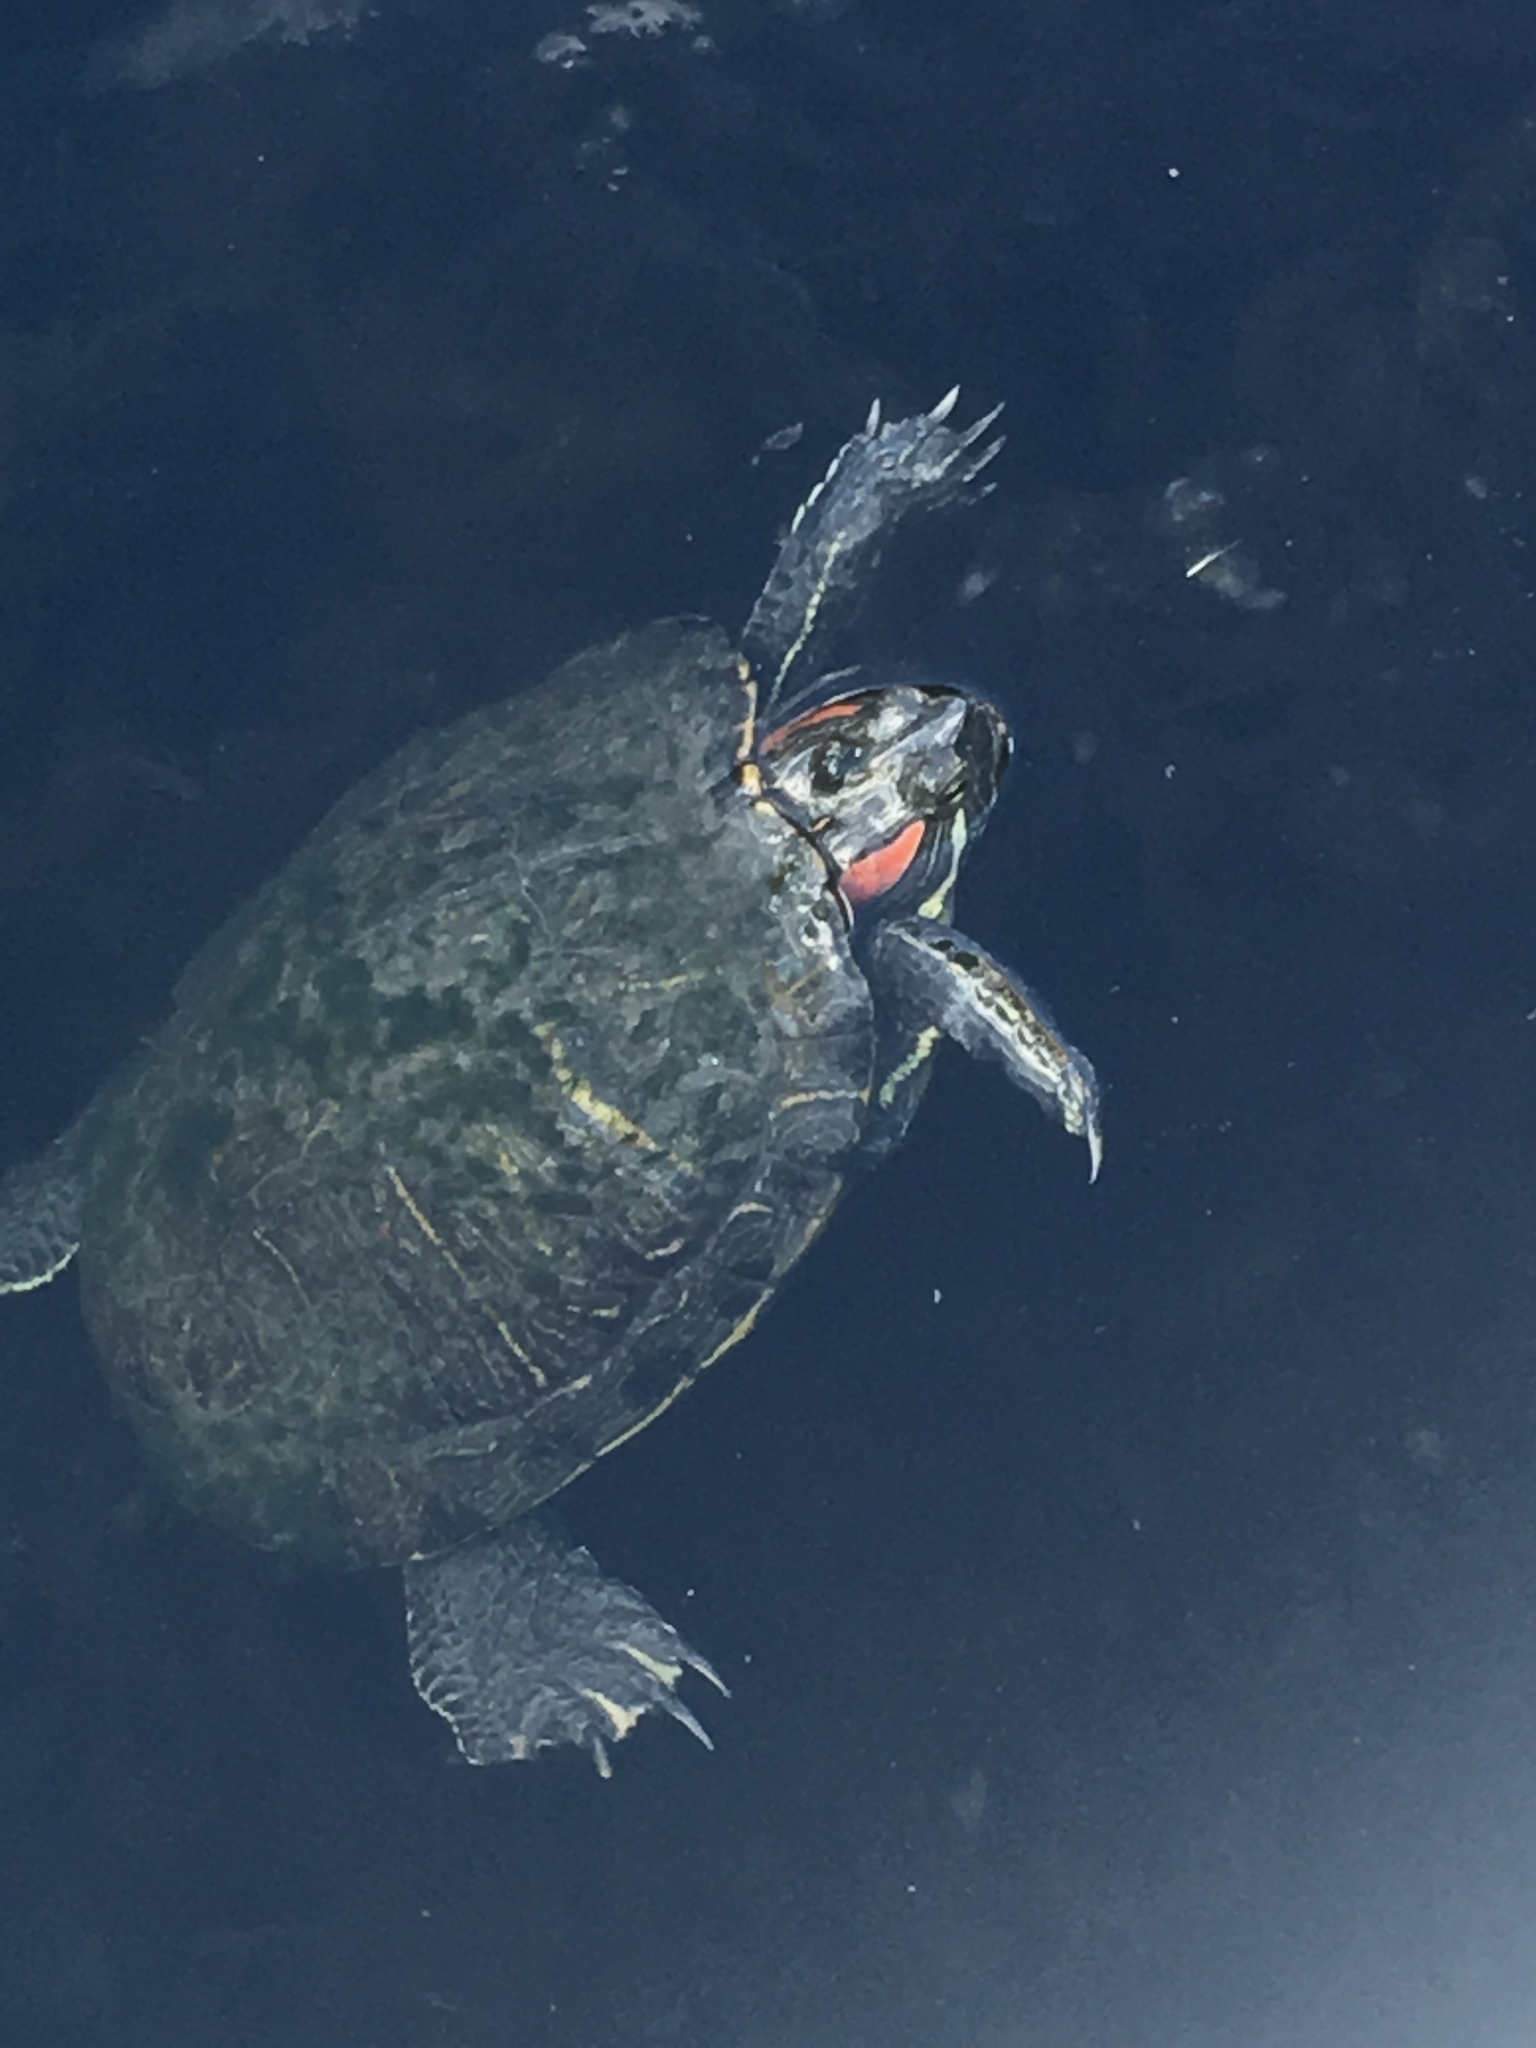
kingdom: Animalia
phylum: Chordata
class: Testudines
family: Emydidae
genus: Trachemys
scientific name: Trachemys scripta
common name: Slider
